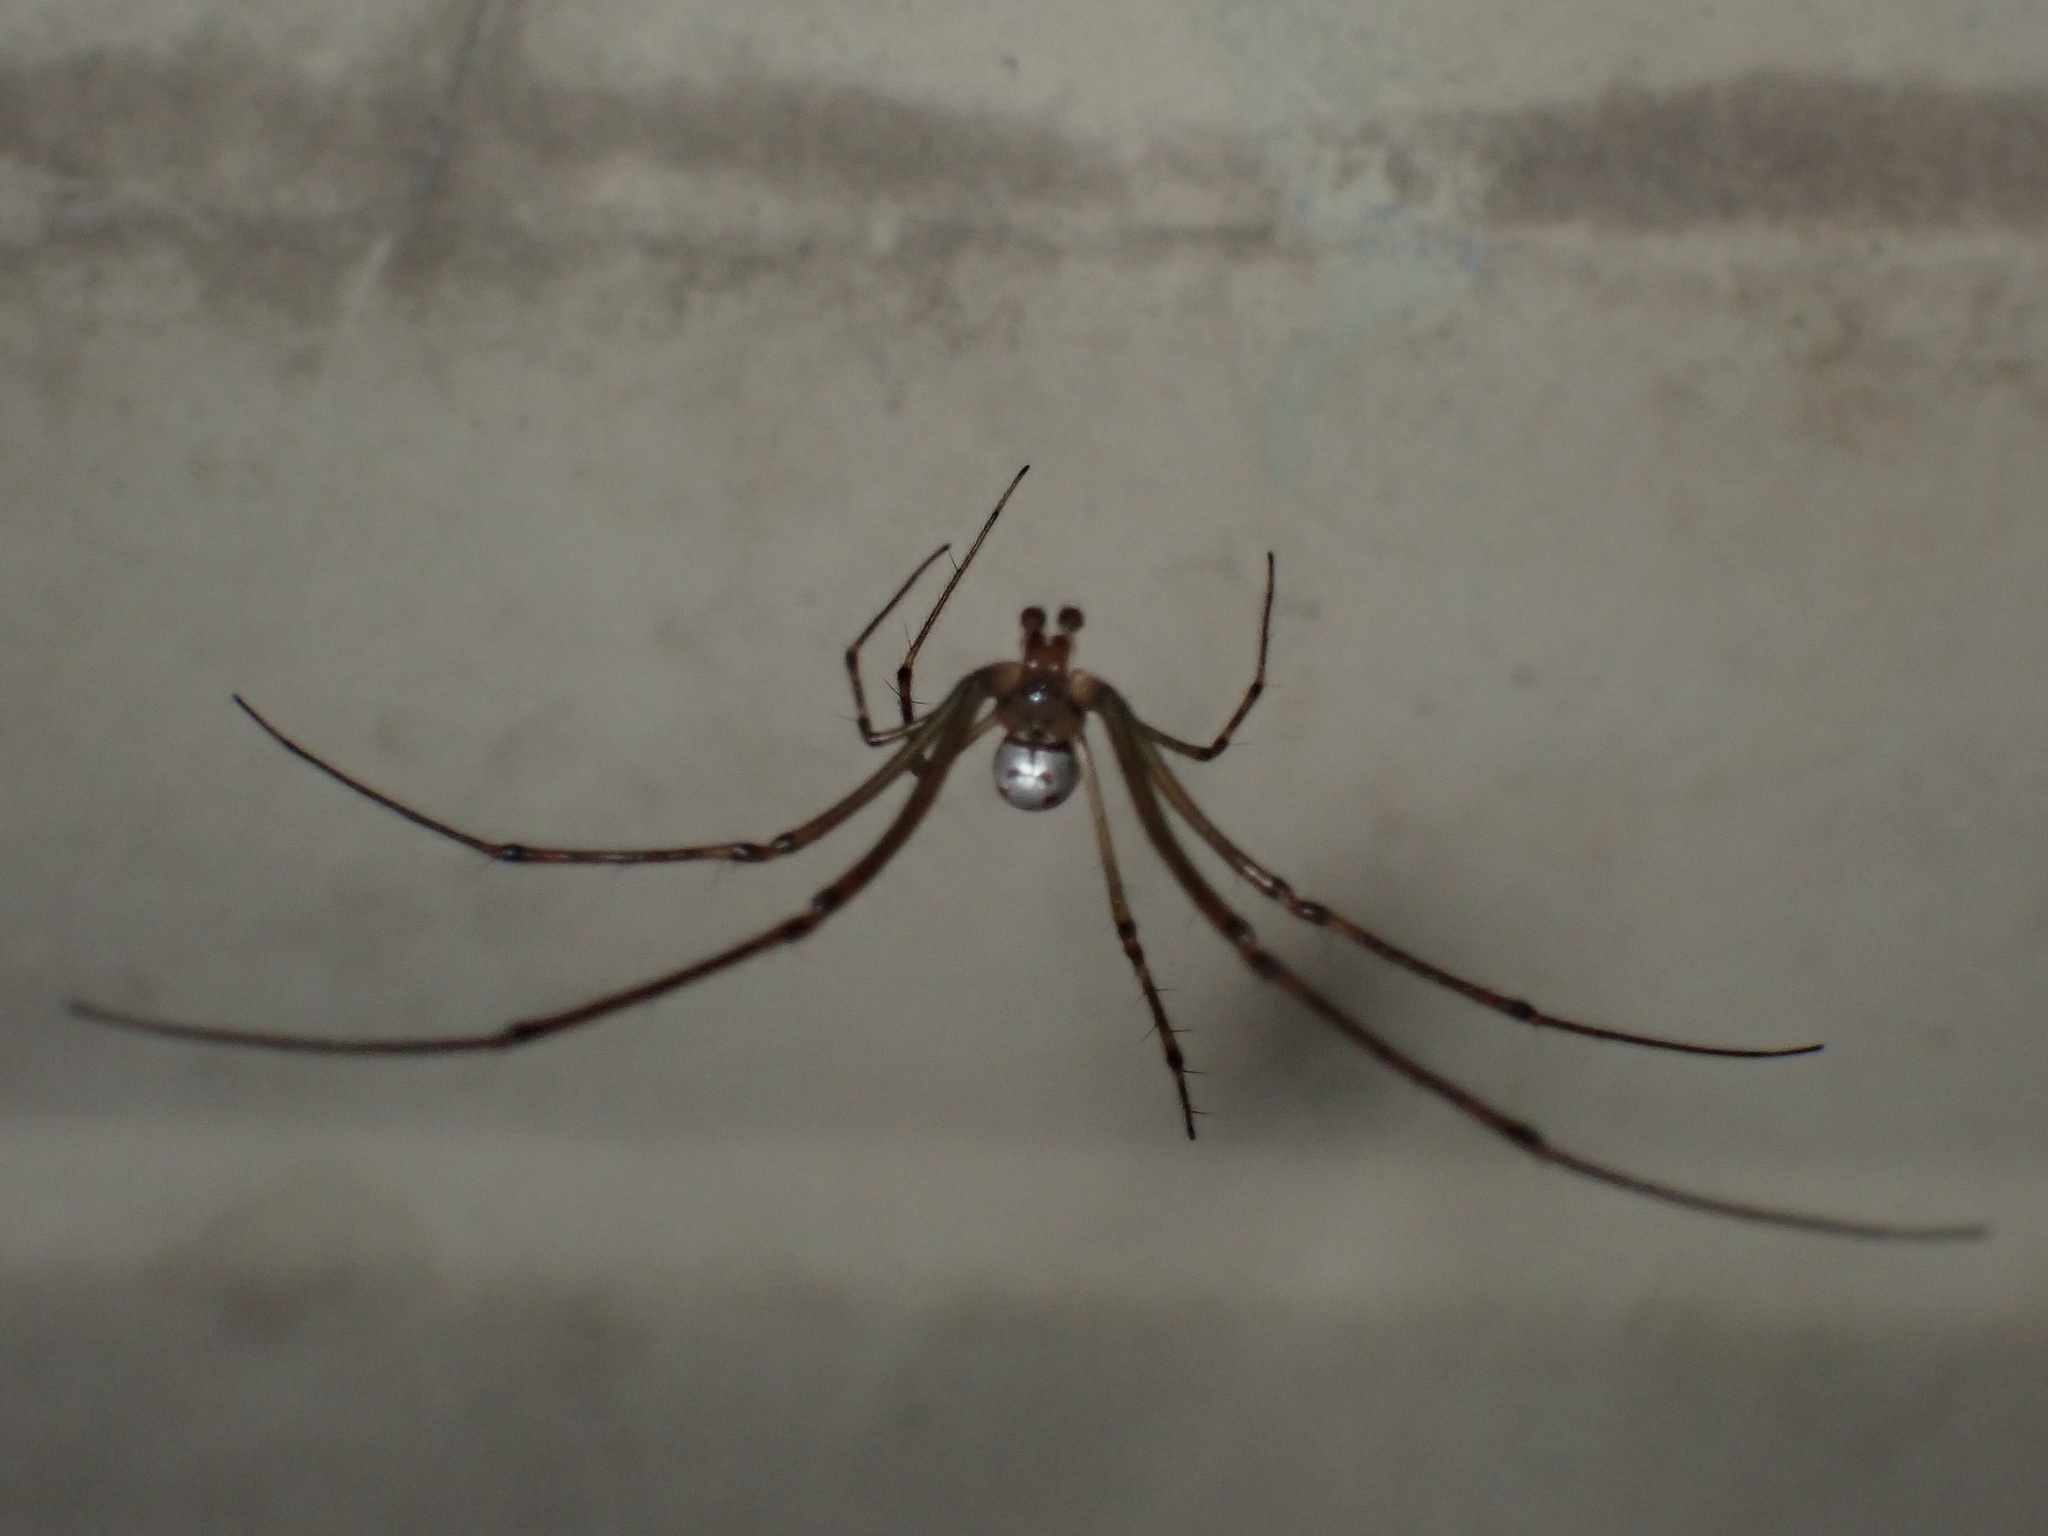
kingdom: Animalia
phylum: Arthropoda
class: Arachnida
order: Araneae
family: Tetragnathidae
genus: Leucauge
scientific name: Leucauge dromedaria
